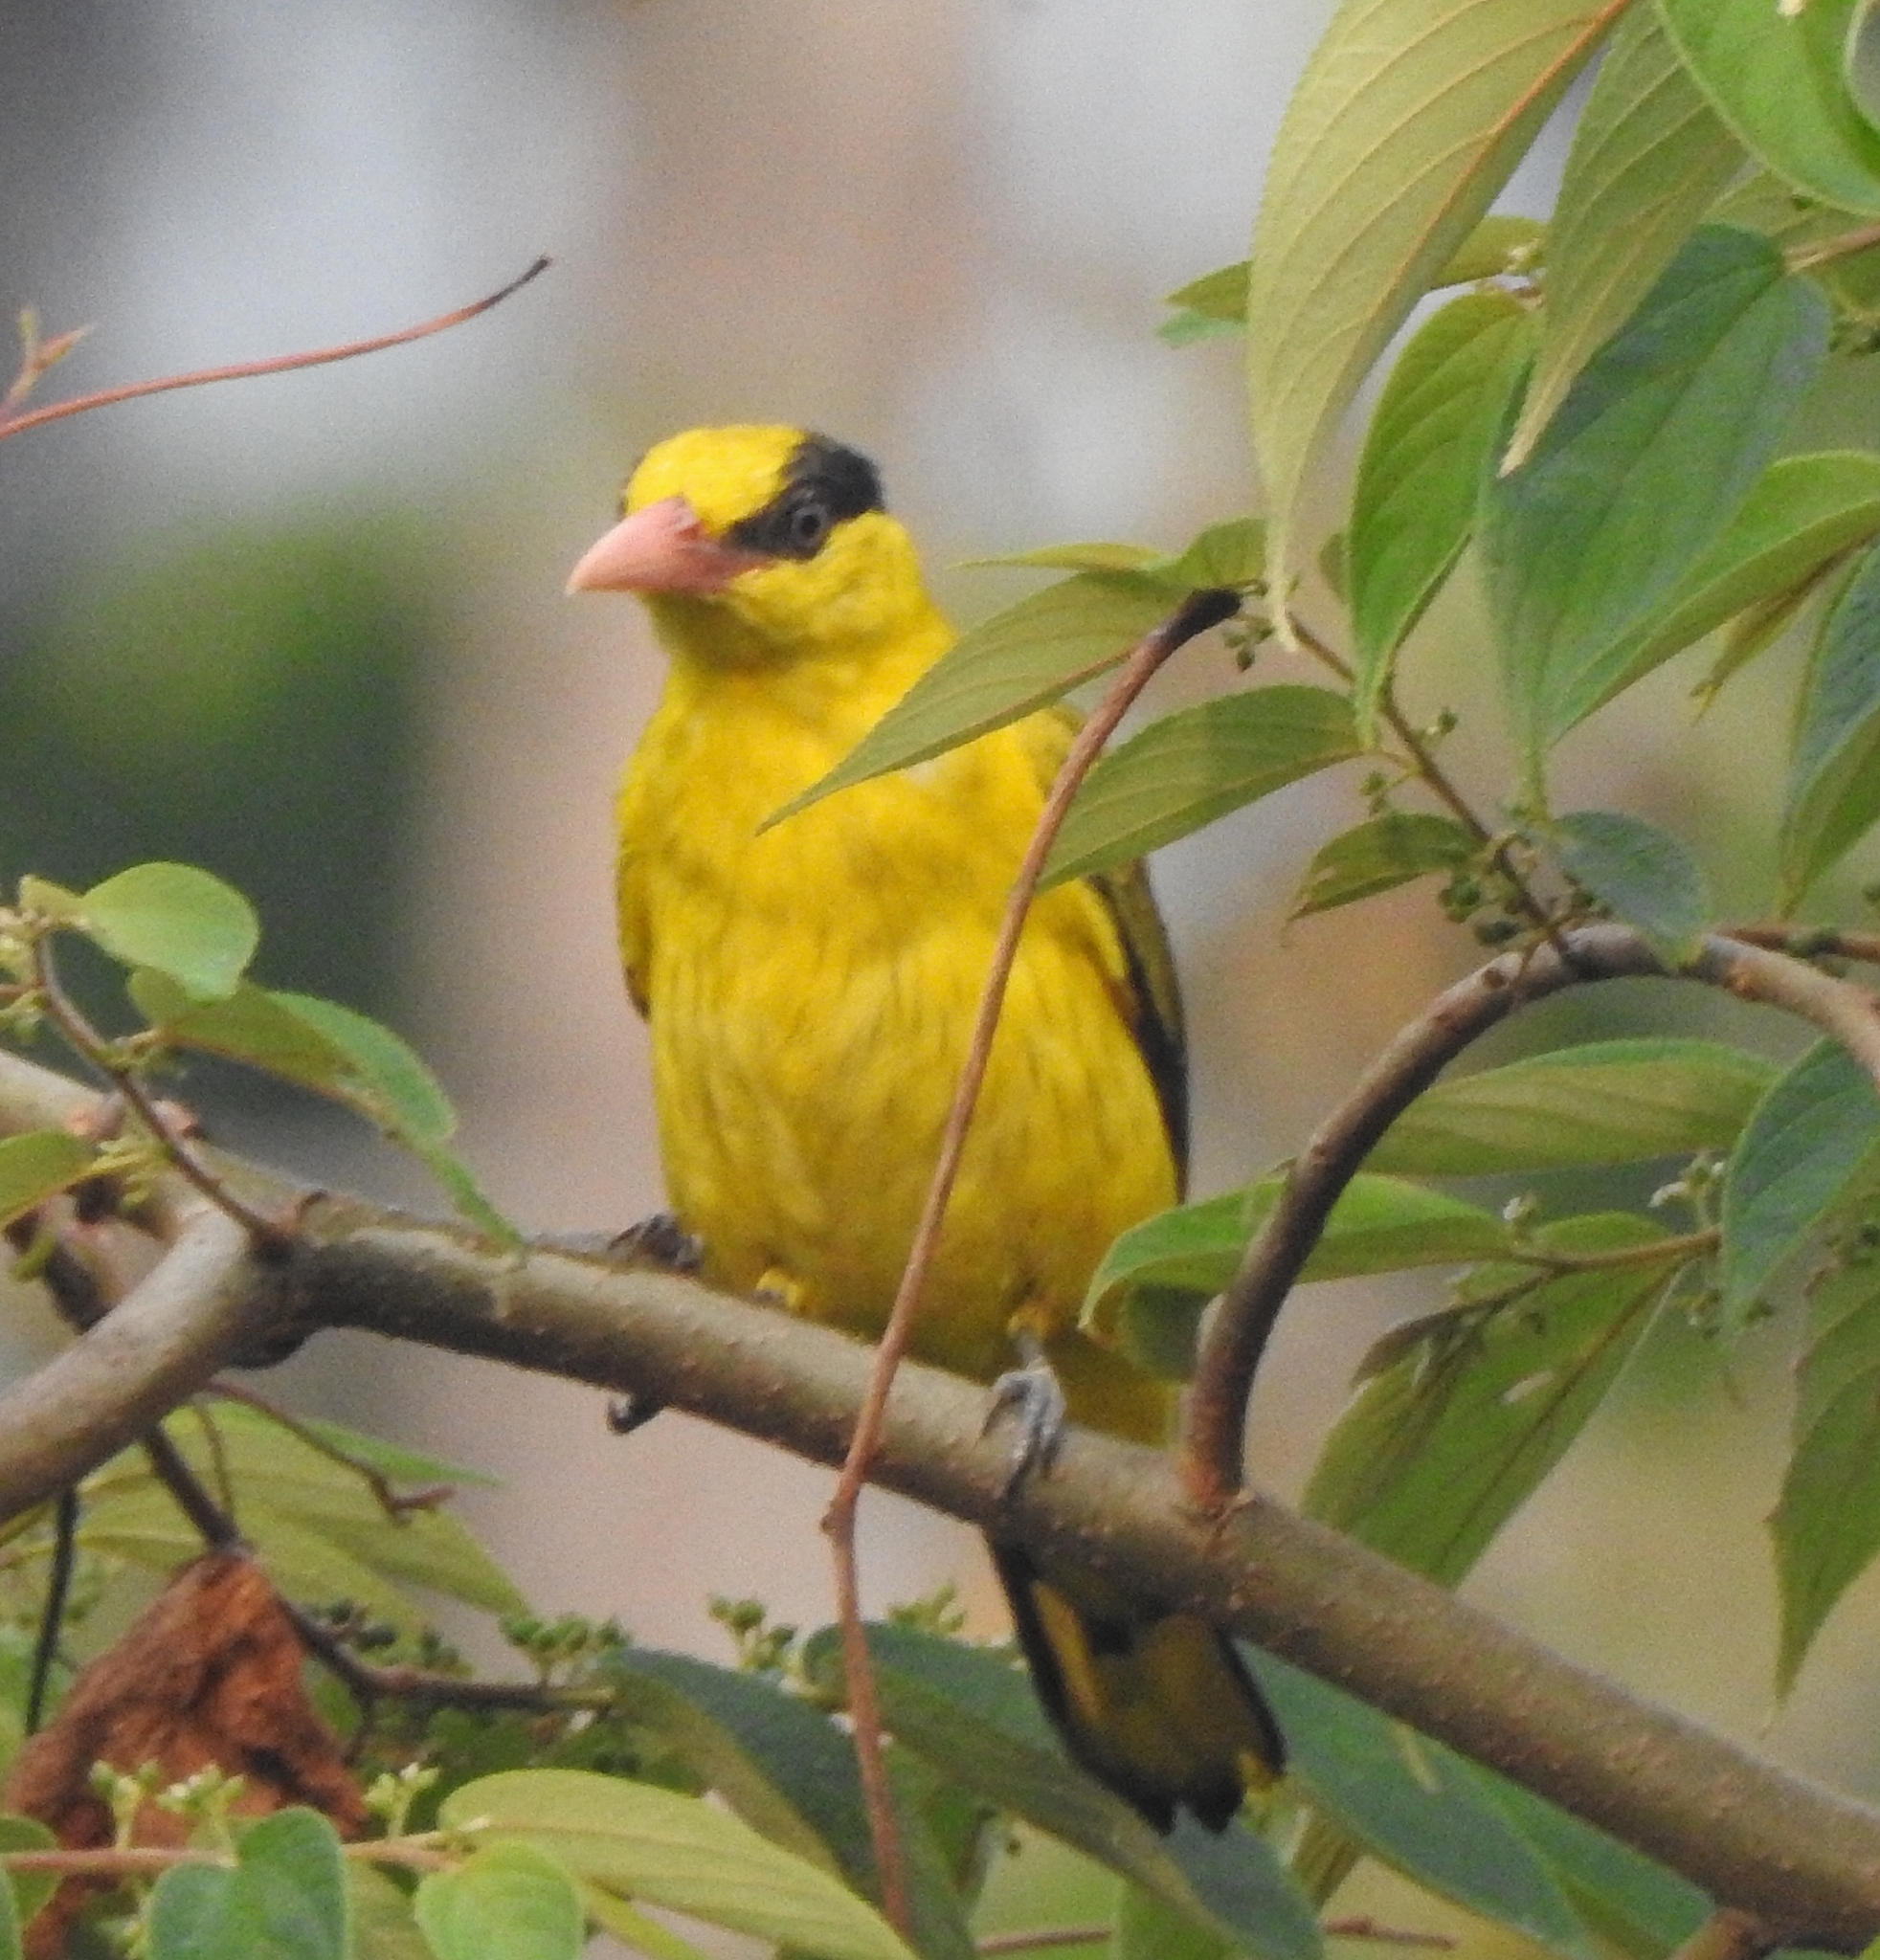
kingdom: Animalia
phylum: Chordata
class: Aves
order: Passeriformes
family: Oriolidae
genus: Oriolus
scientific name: Oriolus chinensis
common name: Black-naped oriole
